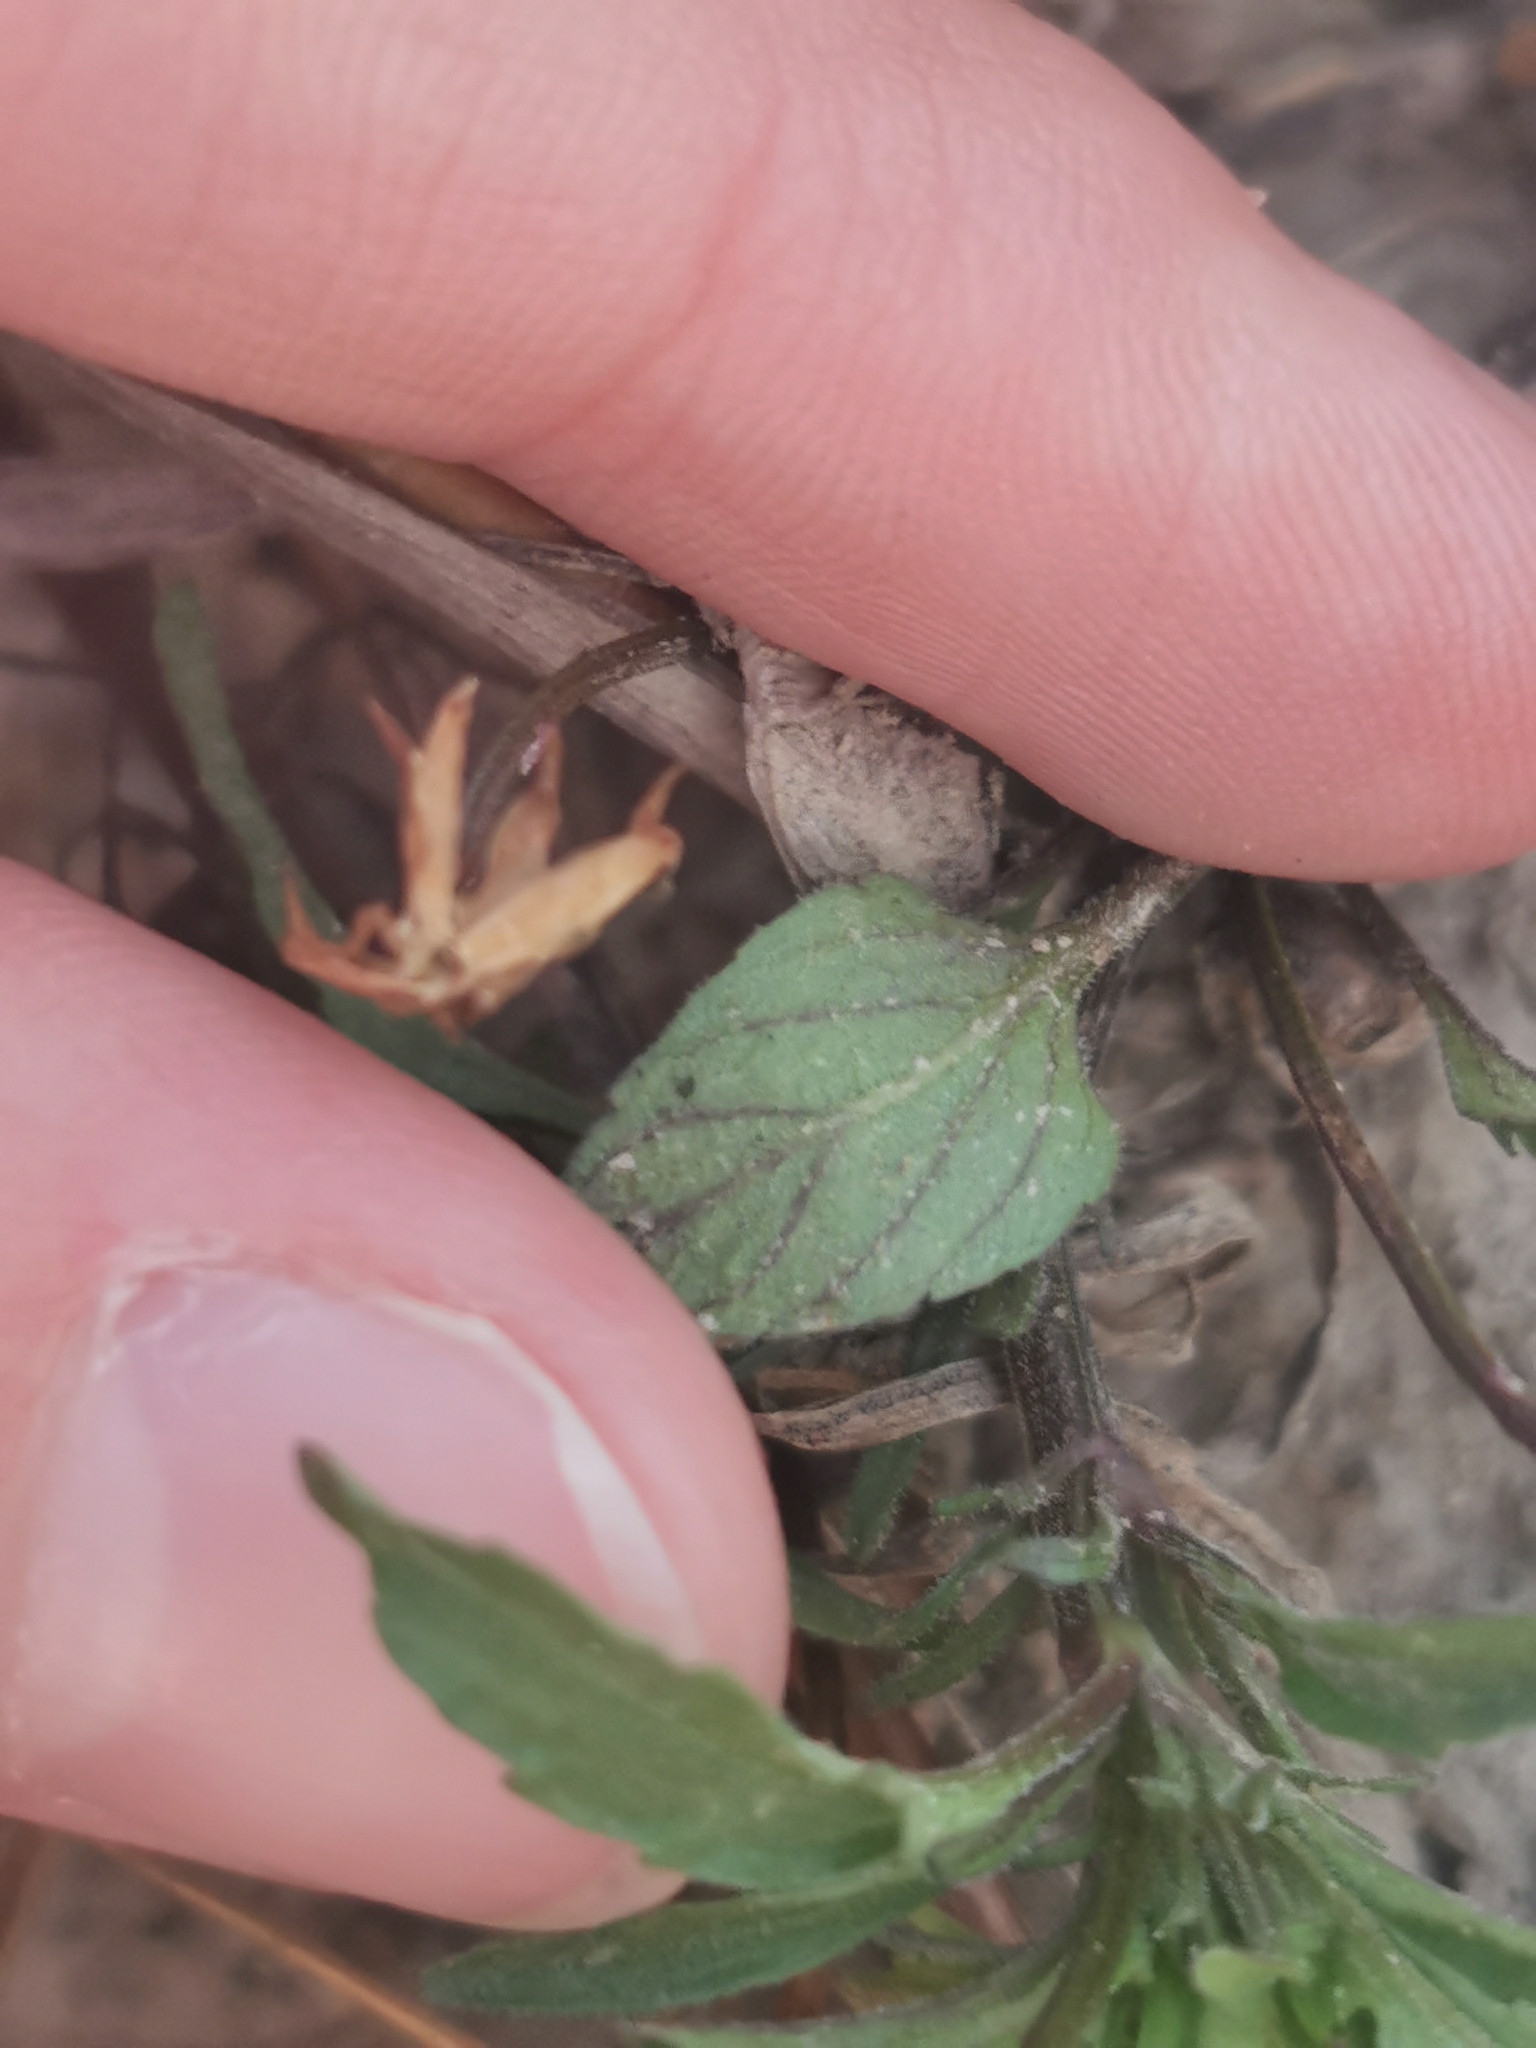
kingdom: Plantae
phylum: Tracheophyta
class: Magnoliopsida
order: Malpighiales
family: Violaceae
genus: Viola
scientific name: Viola arvensis
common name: Field pansy
